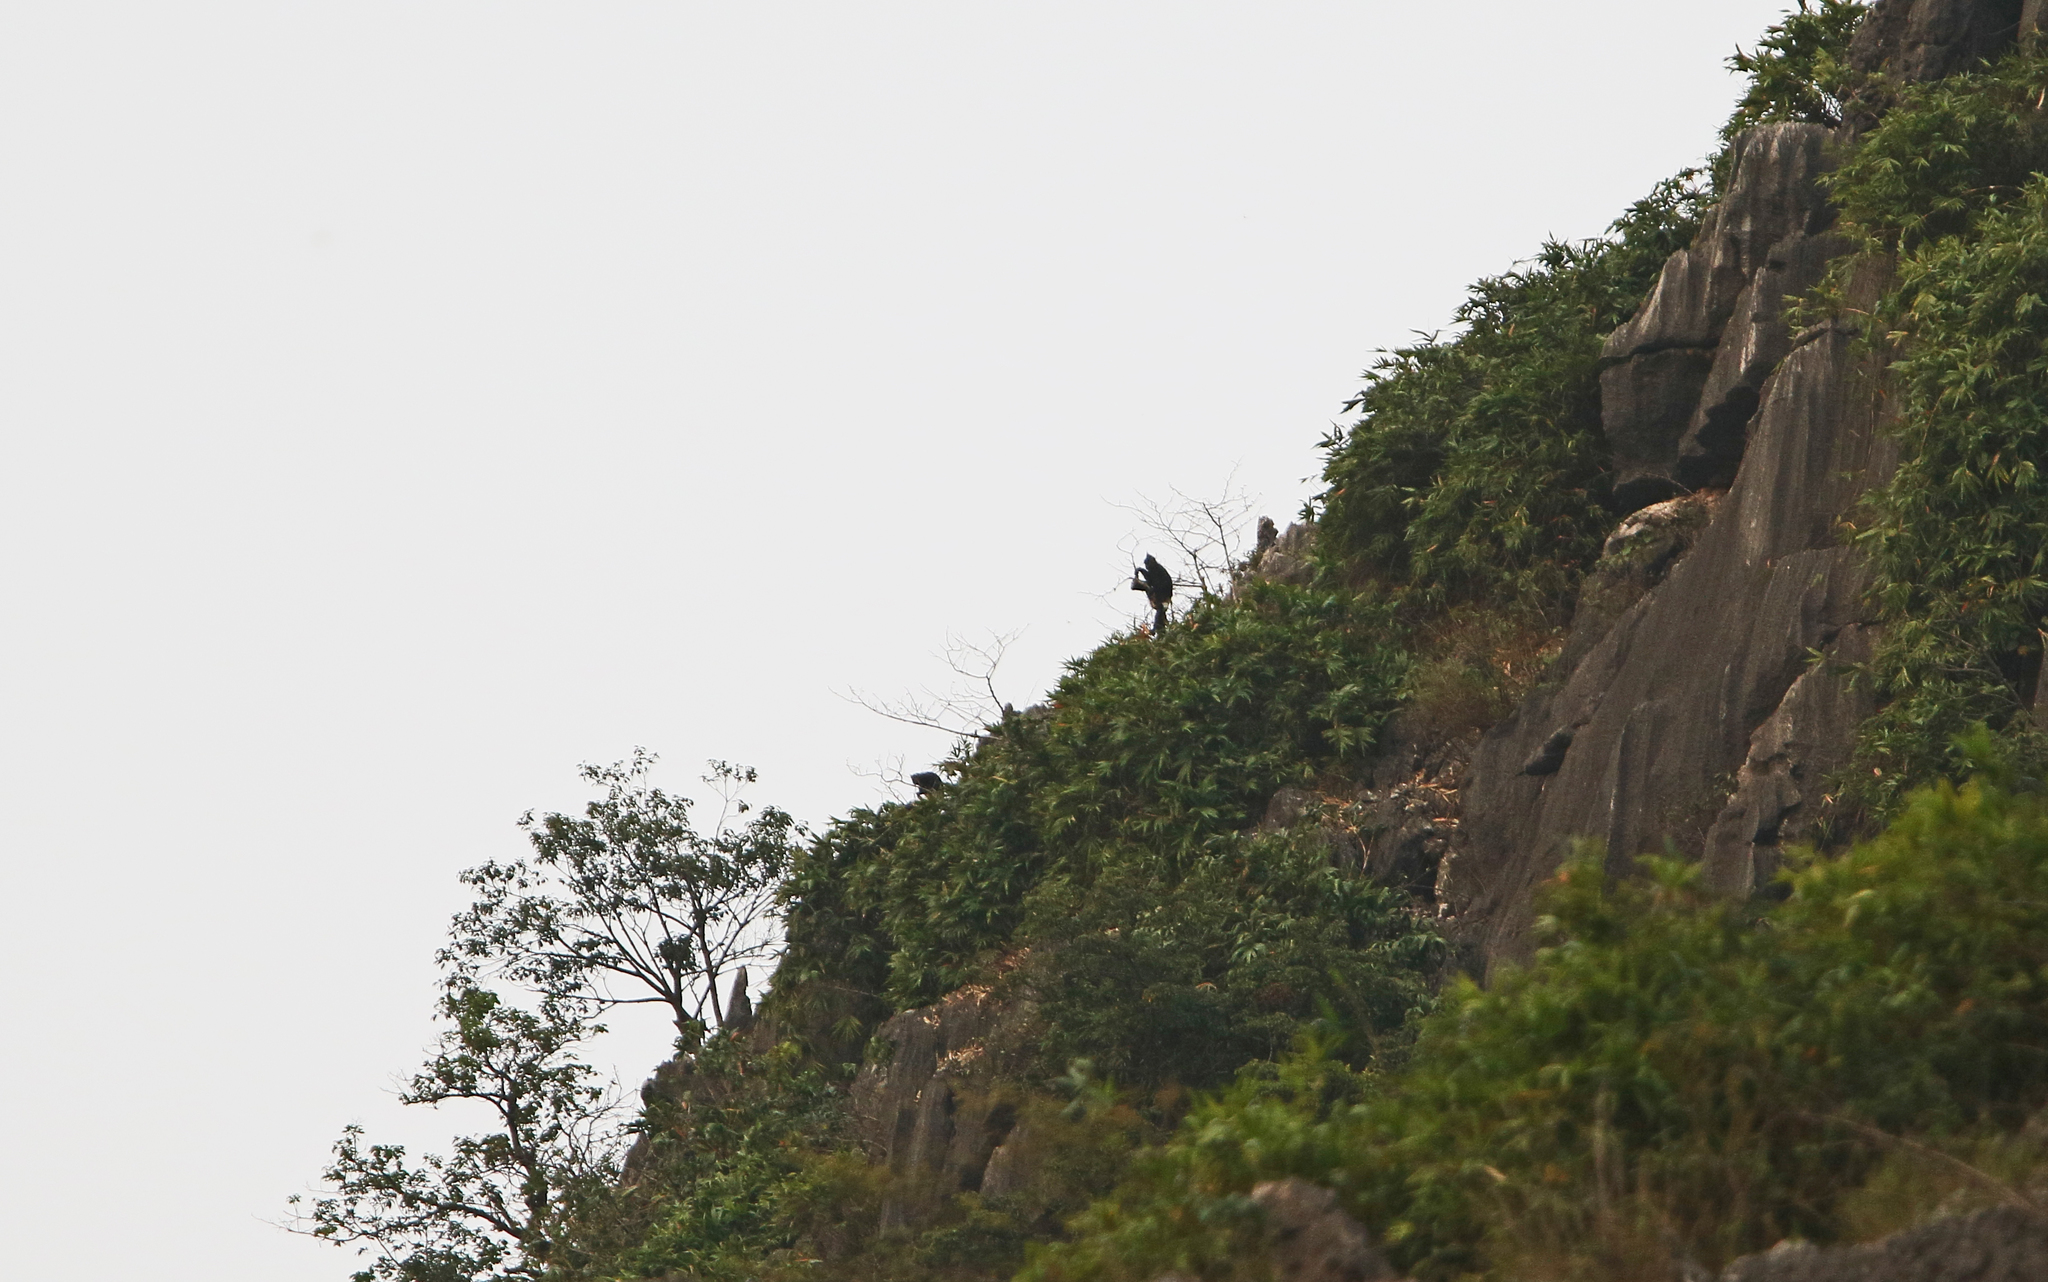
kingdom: Animalia
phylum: Chordata
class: Mammalia
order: Primates
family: Cercopithecidae
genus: Trachypithecus
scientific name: Trachypithecus delacouri
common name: Delacour's langur
